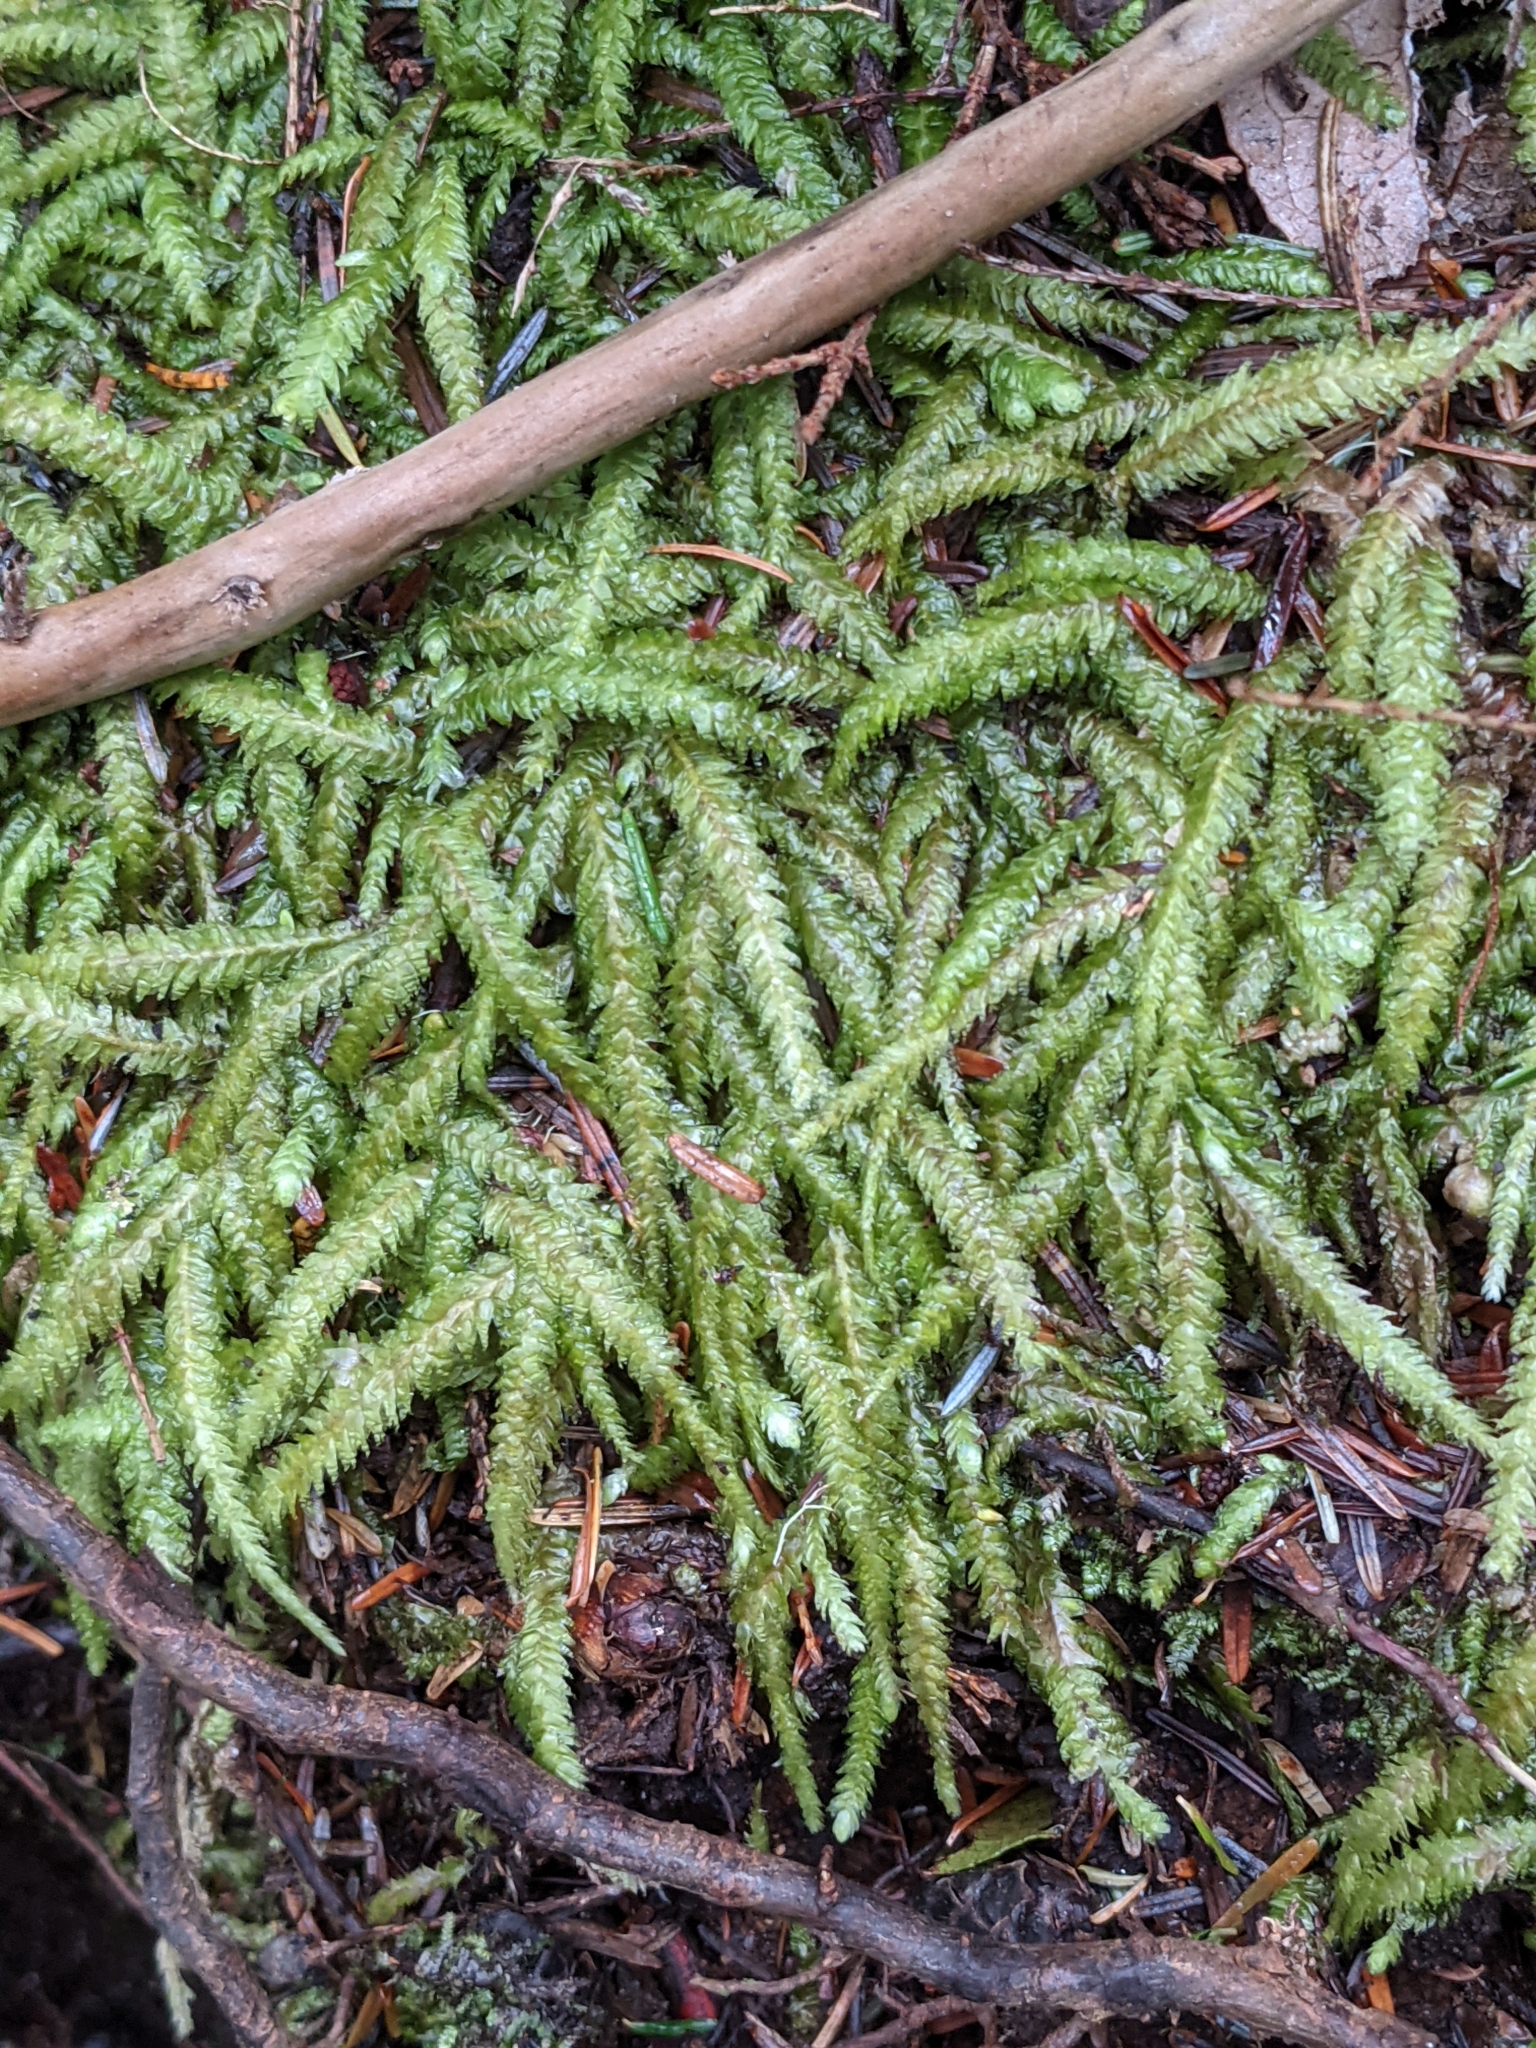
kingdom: Plantae
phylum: Bryophyta
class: Bryopsida
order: Hypnales
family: Plagiotheciaceae
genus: Plagiothecium
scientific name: Plagiothecium undulatum
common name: Waved silk-moss
